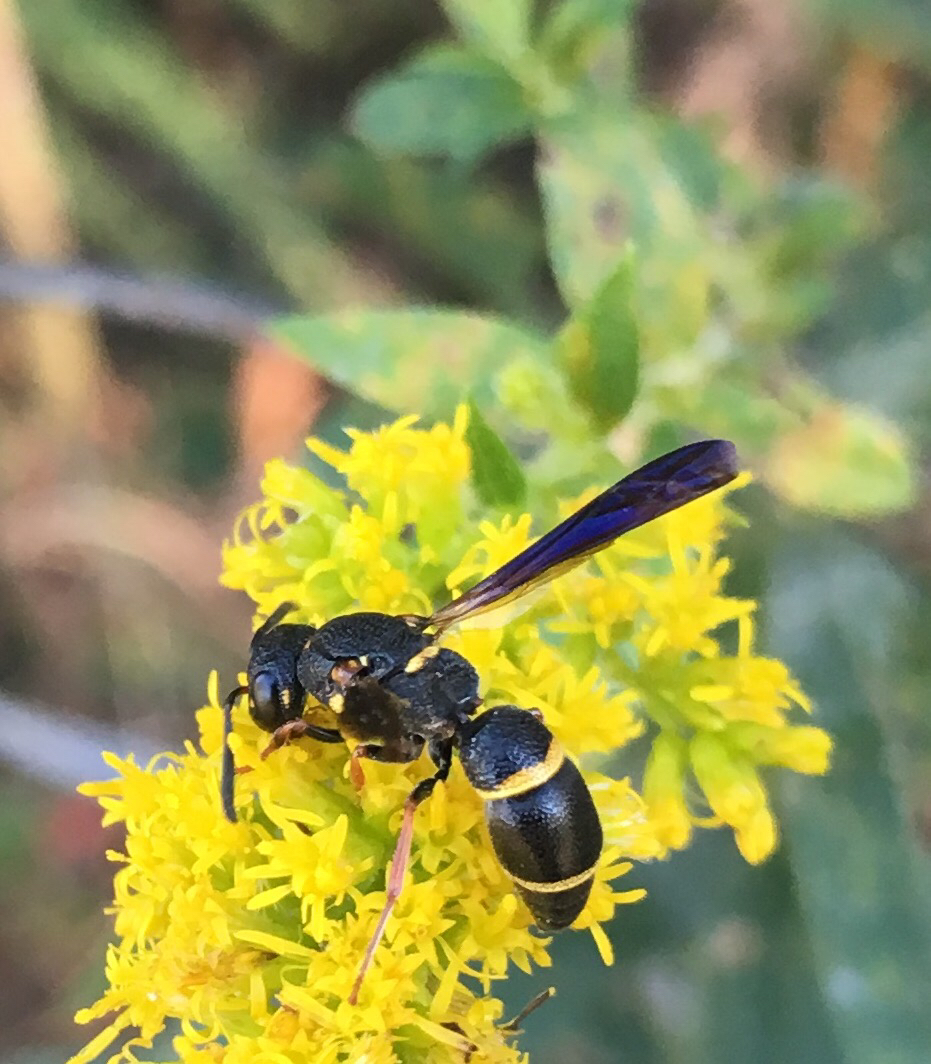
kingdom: Animalia
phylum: Arthropoda
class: Insecta
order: Hymenoptera
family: Eumenidae
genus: Parancistrocerus
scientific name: Parancistrocerus histrio
